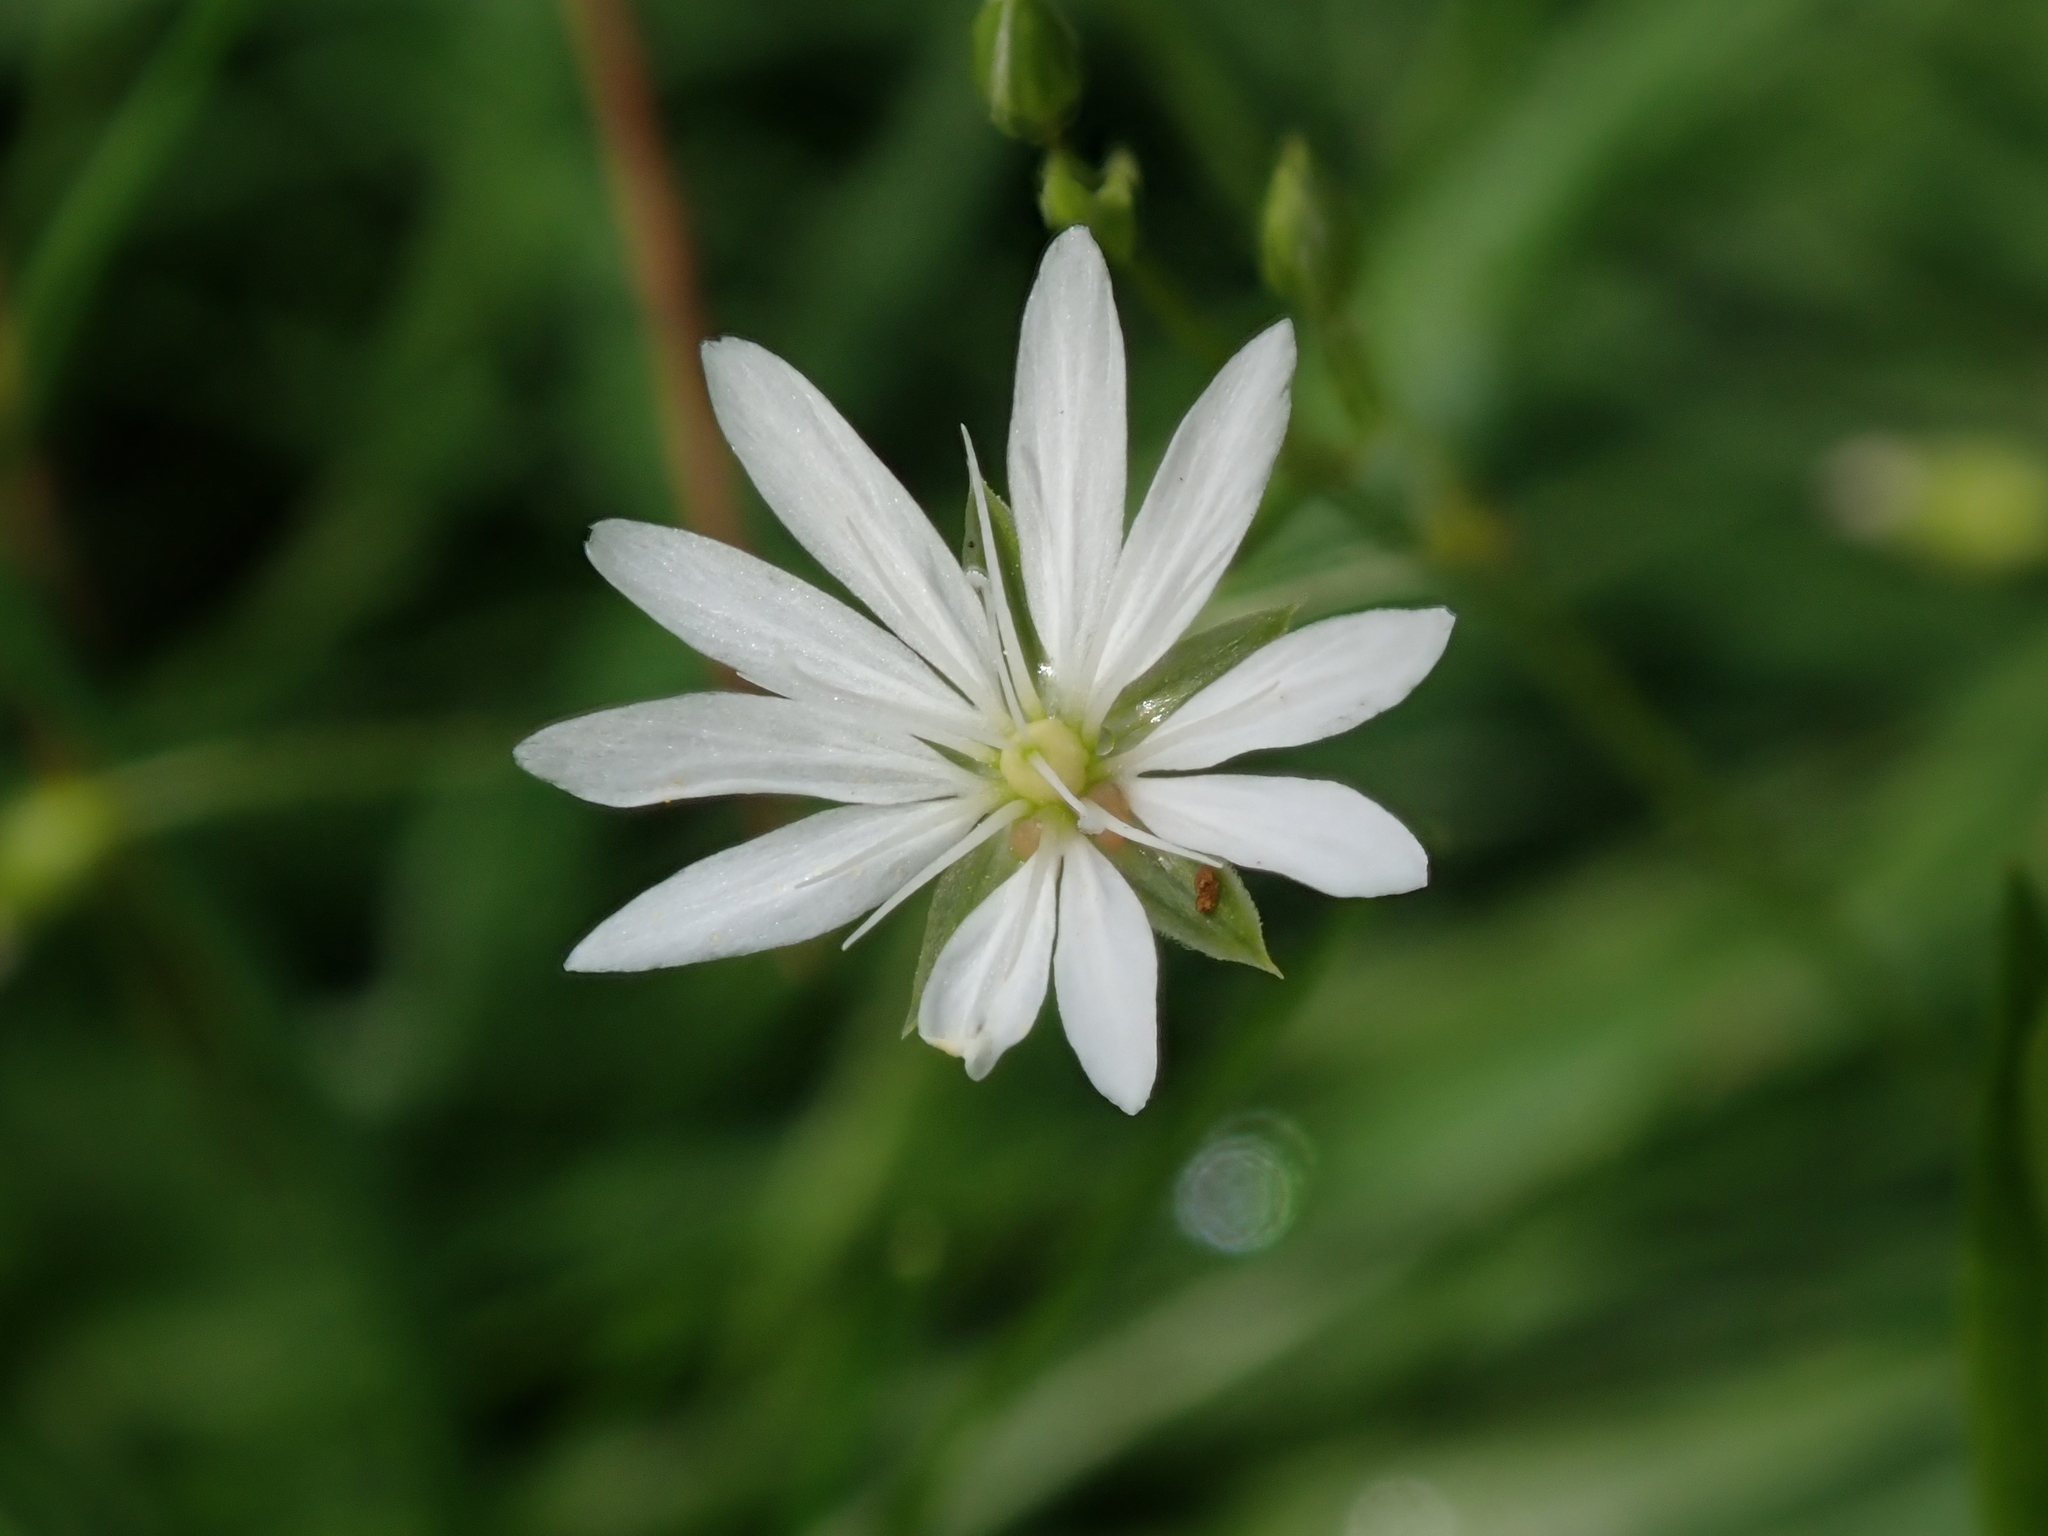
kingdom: Plantae
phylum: Tracheophyta
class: Magnoliopsida
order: Caryophyllales
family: Caryophyllaceae
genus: Stellaria
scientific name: Stellaria graminea
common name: Grass-like starwort
